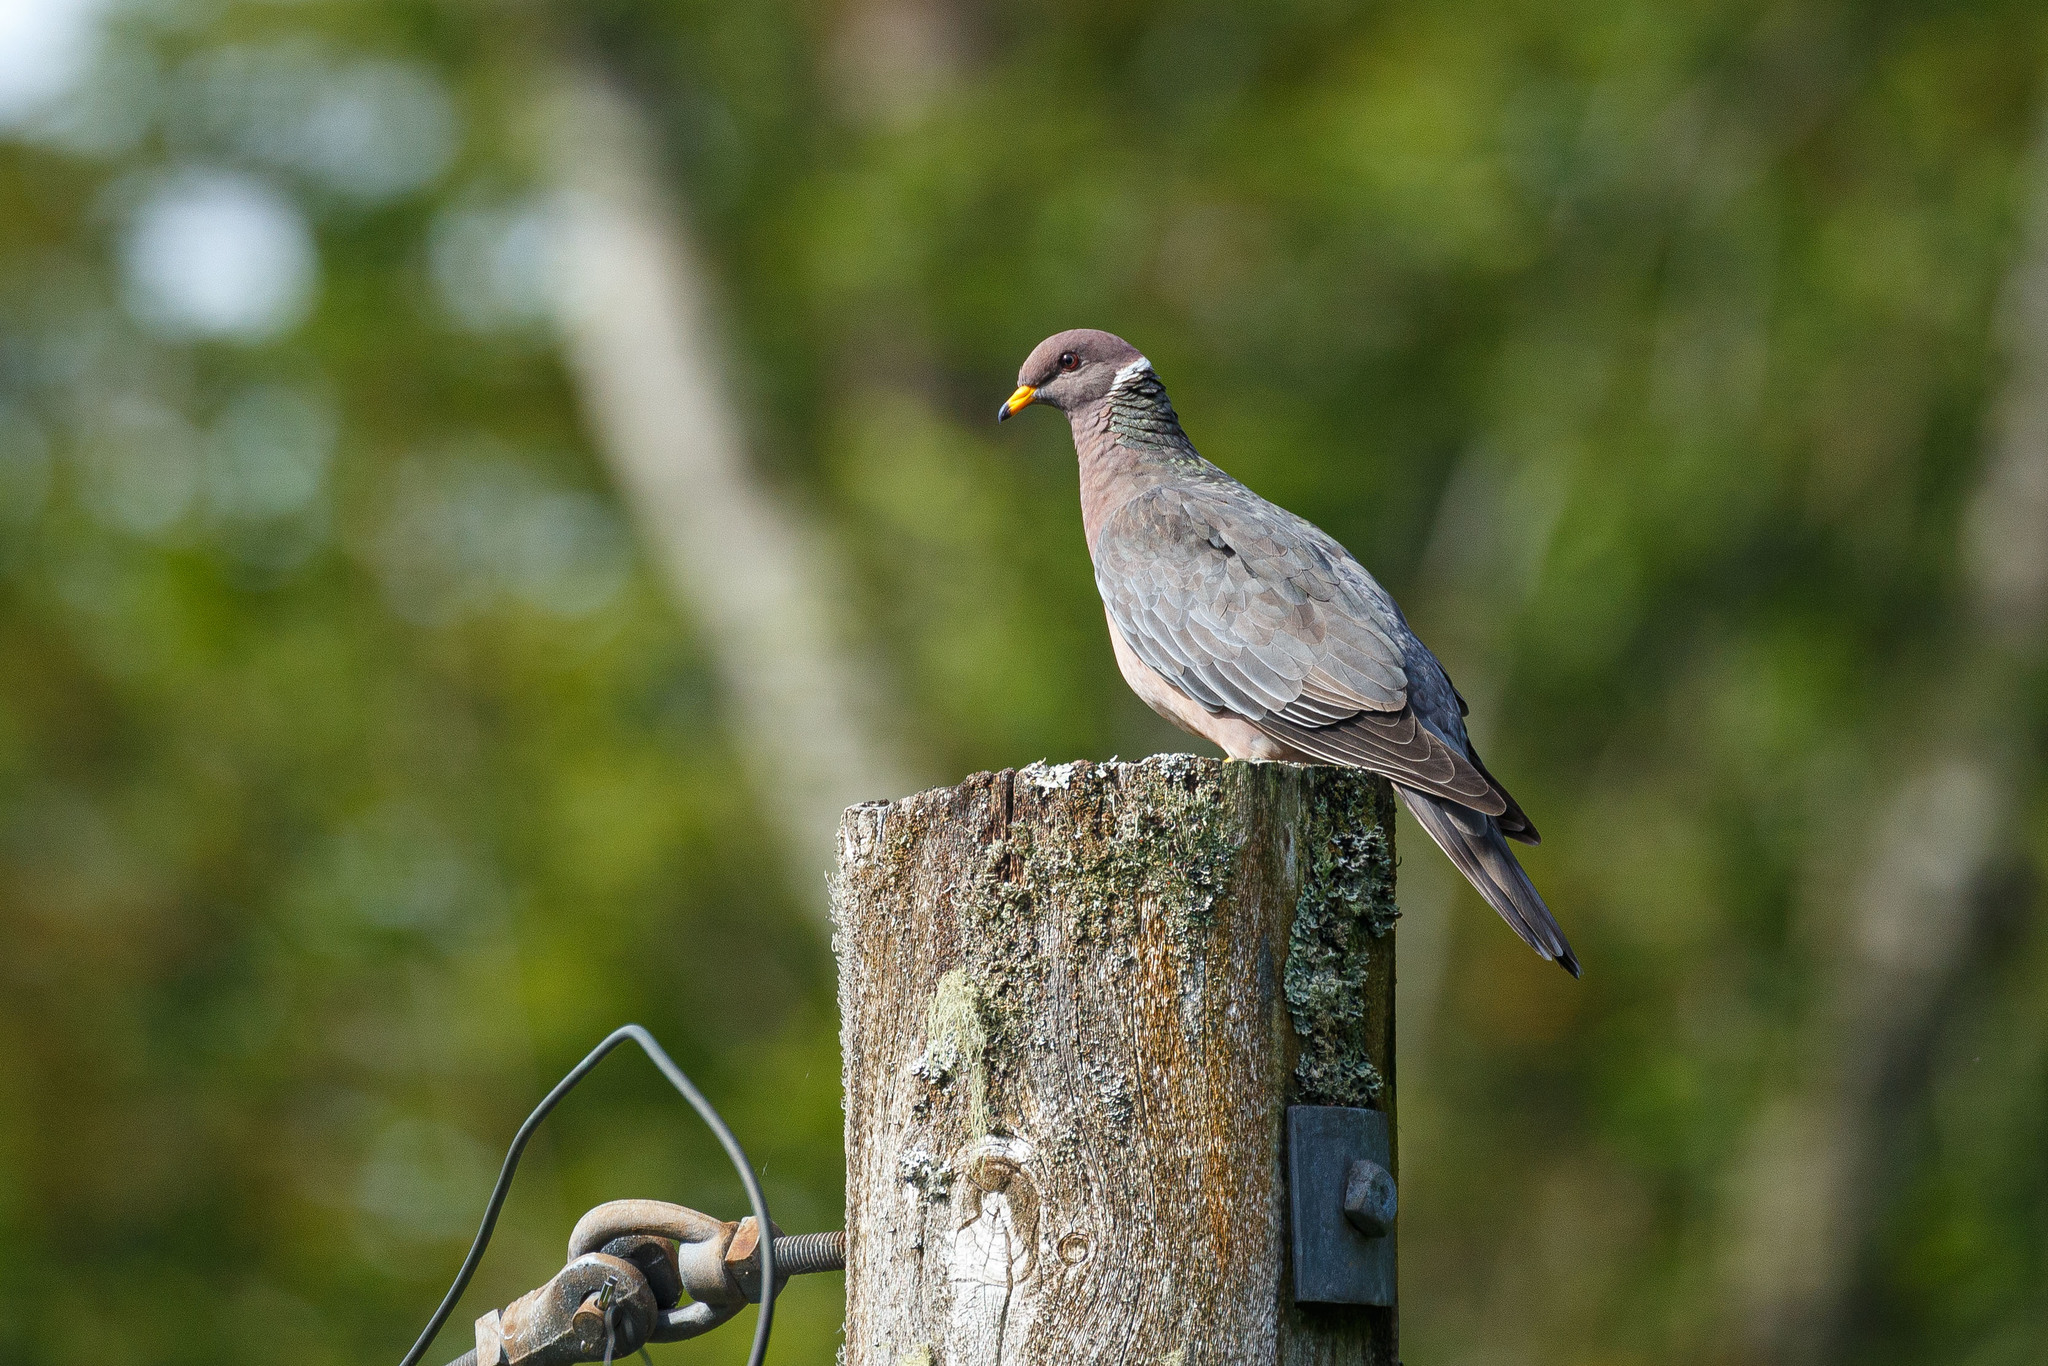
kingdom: Animalia
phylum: Chordata
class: Aves
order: Columbiformes
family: Columbidae
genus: Patagioenas
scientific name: Patagioenas fasciata
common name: Band-tailed pigeon
